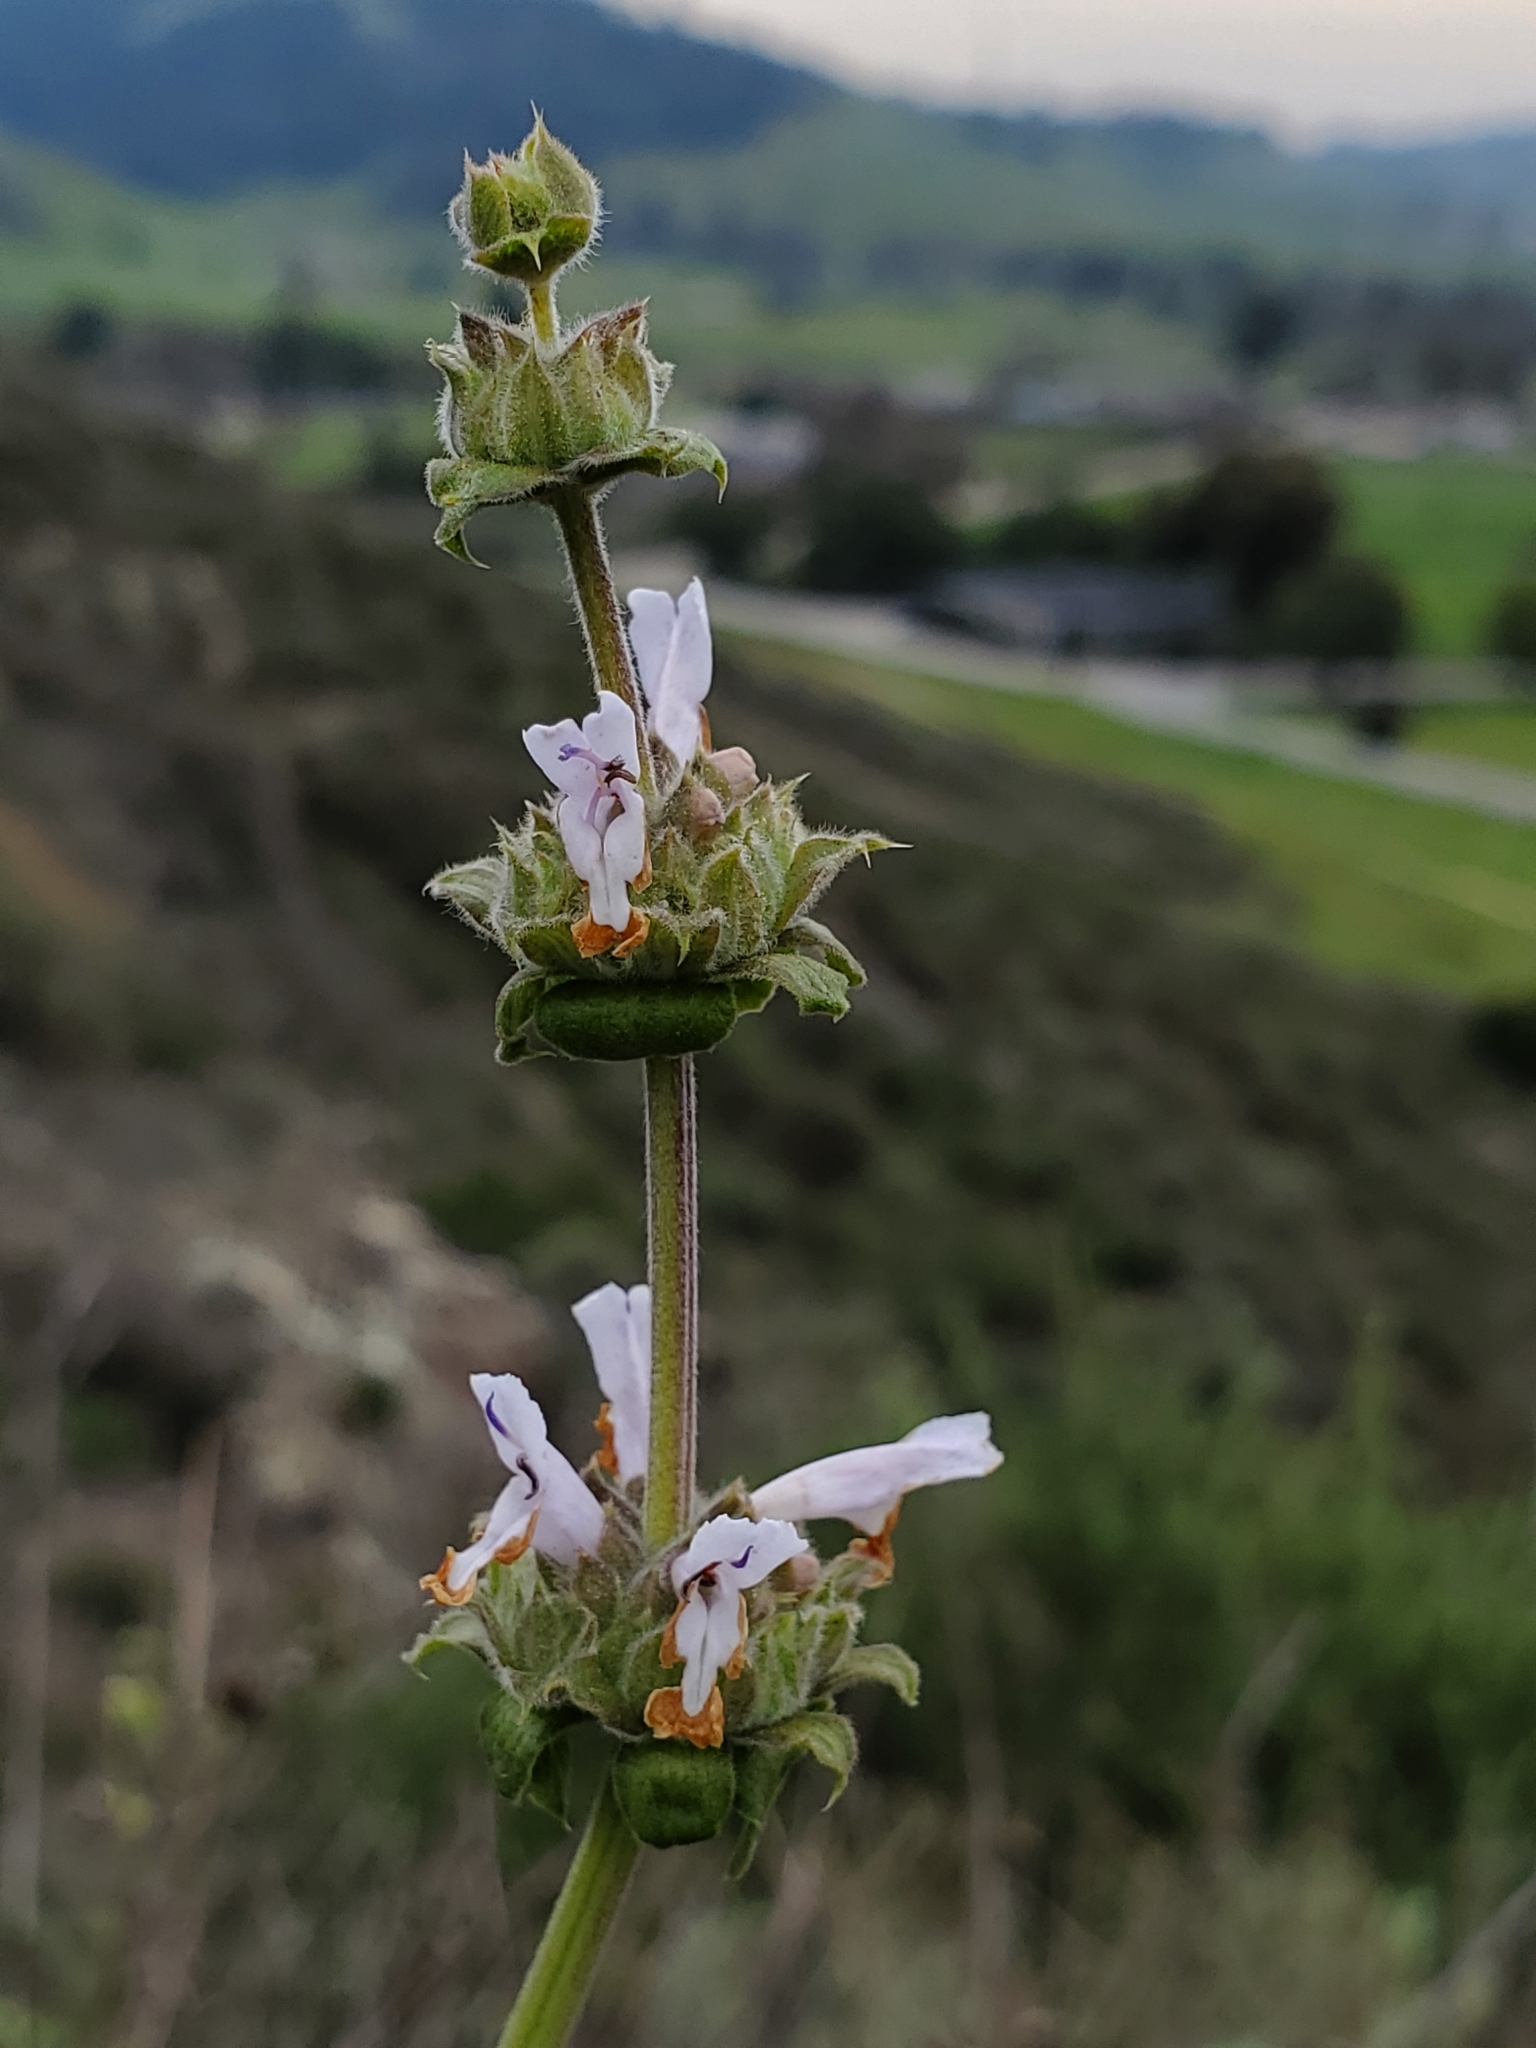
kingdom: Plantae
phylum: Tracheophyta
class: Magnoliopsida
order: Lamiales
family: Lamiaceae
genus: Salvia
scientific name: Salvia mellifera
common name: Black sage
